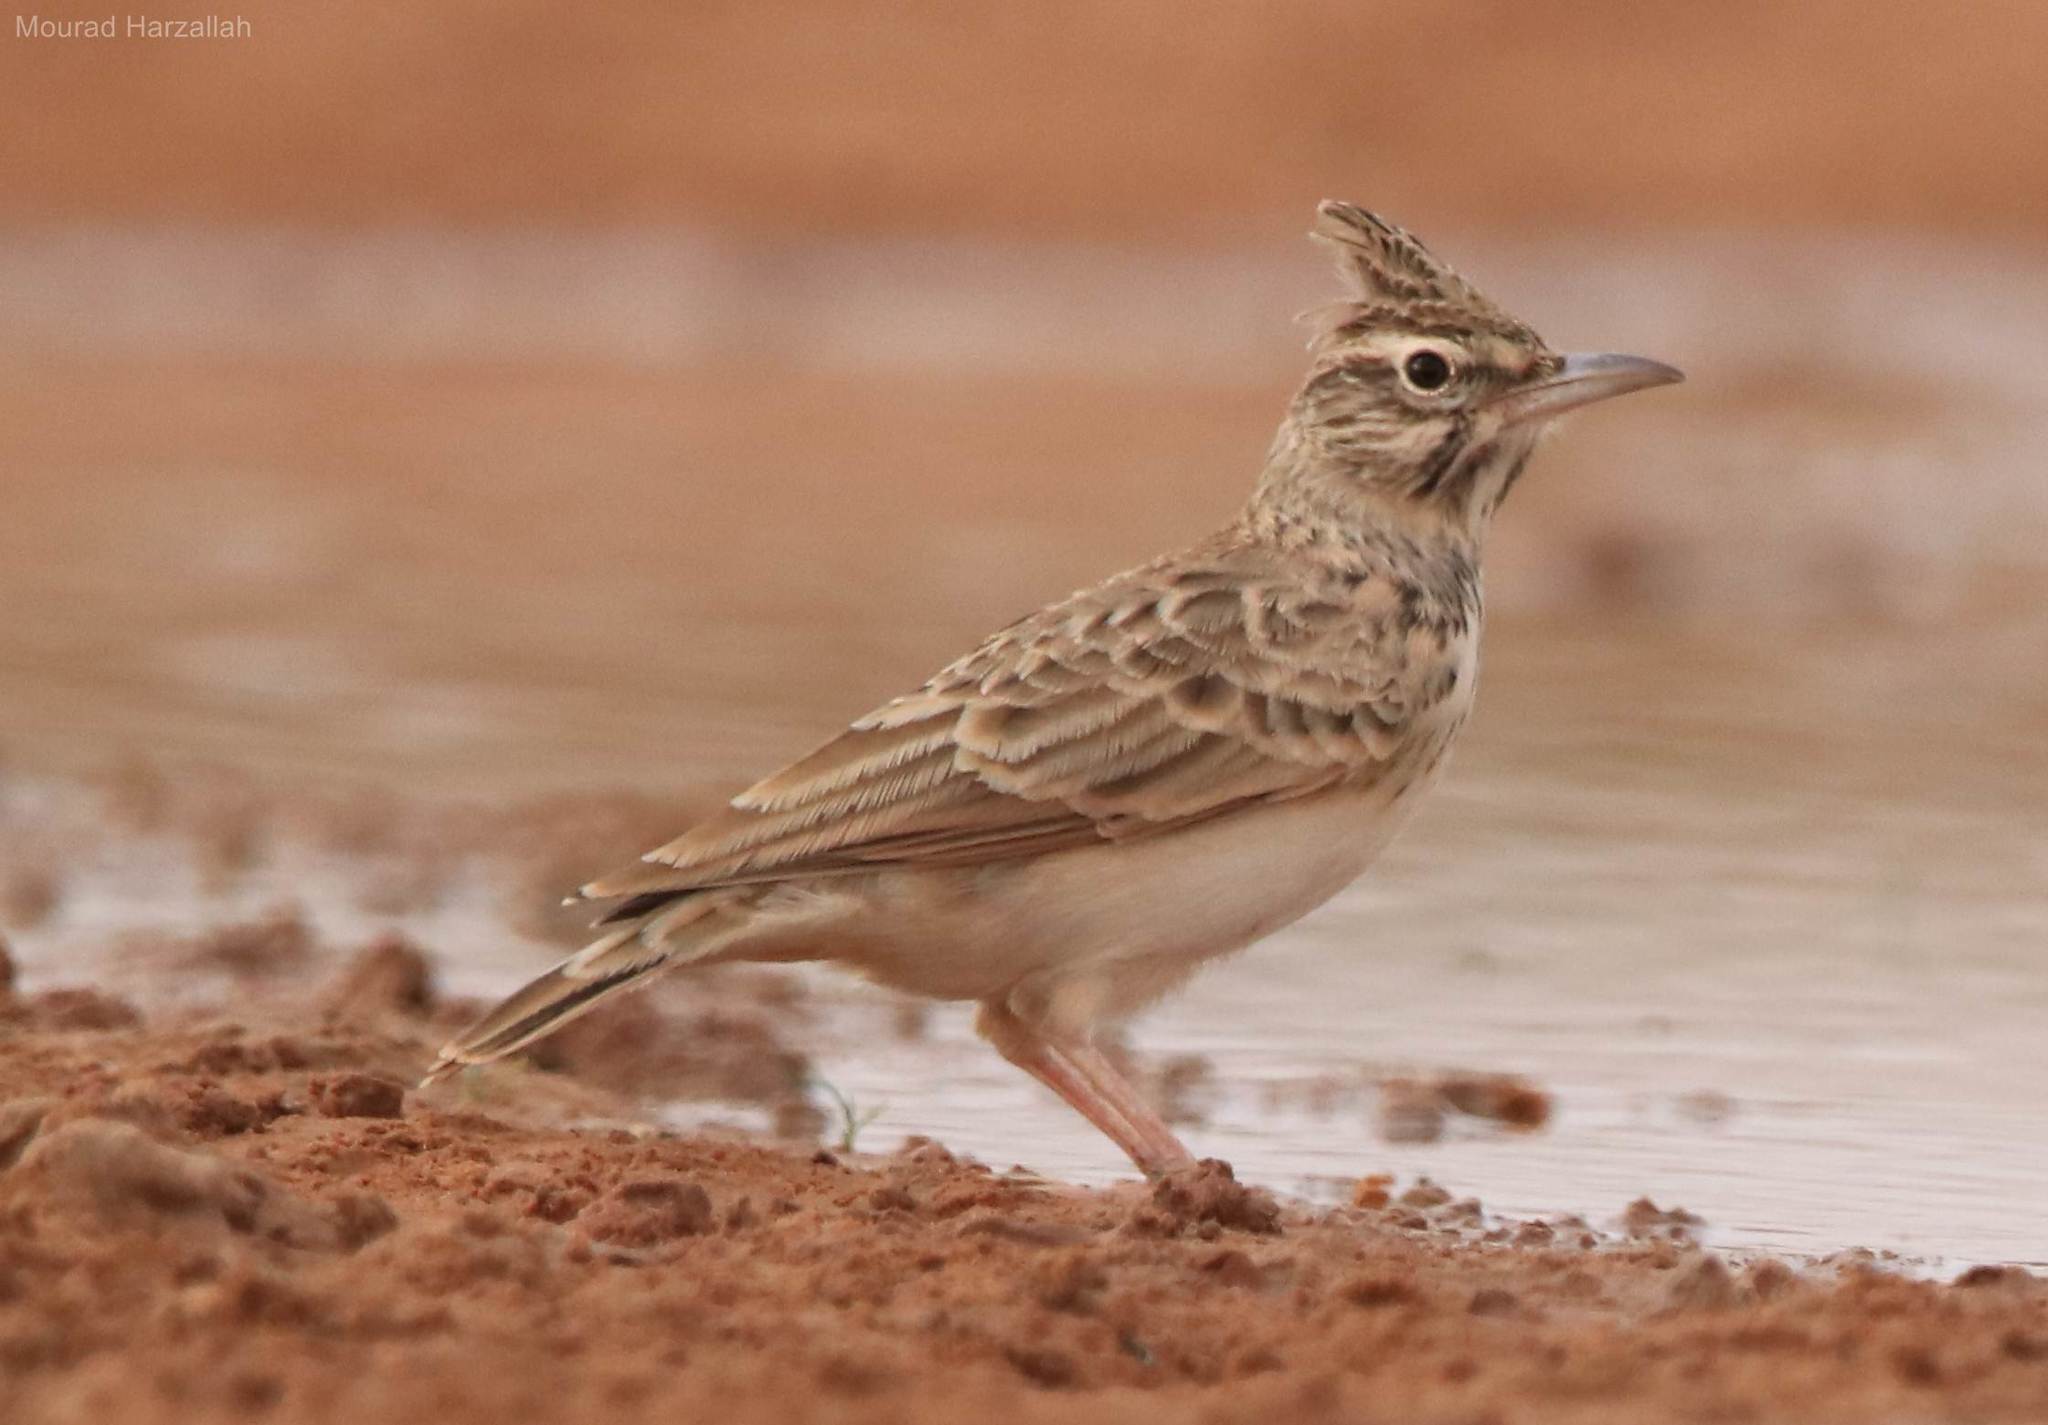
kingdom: Animalia
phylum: Chordata
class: Aves
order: Passeriformes
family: Alaudidae
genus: Galerida
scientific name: Galerida cristata
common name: Crested lark
